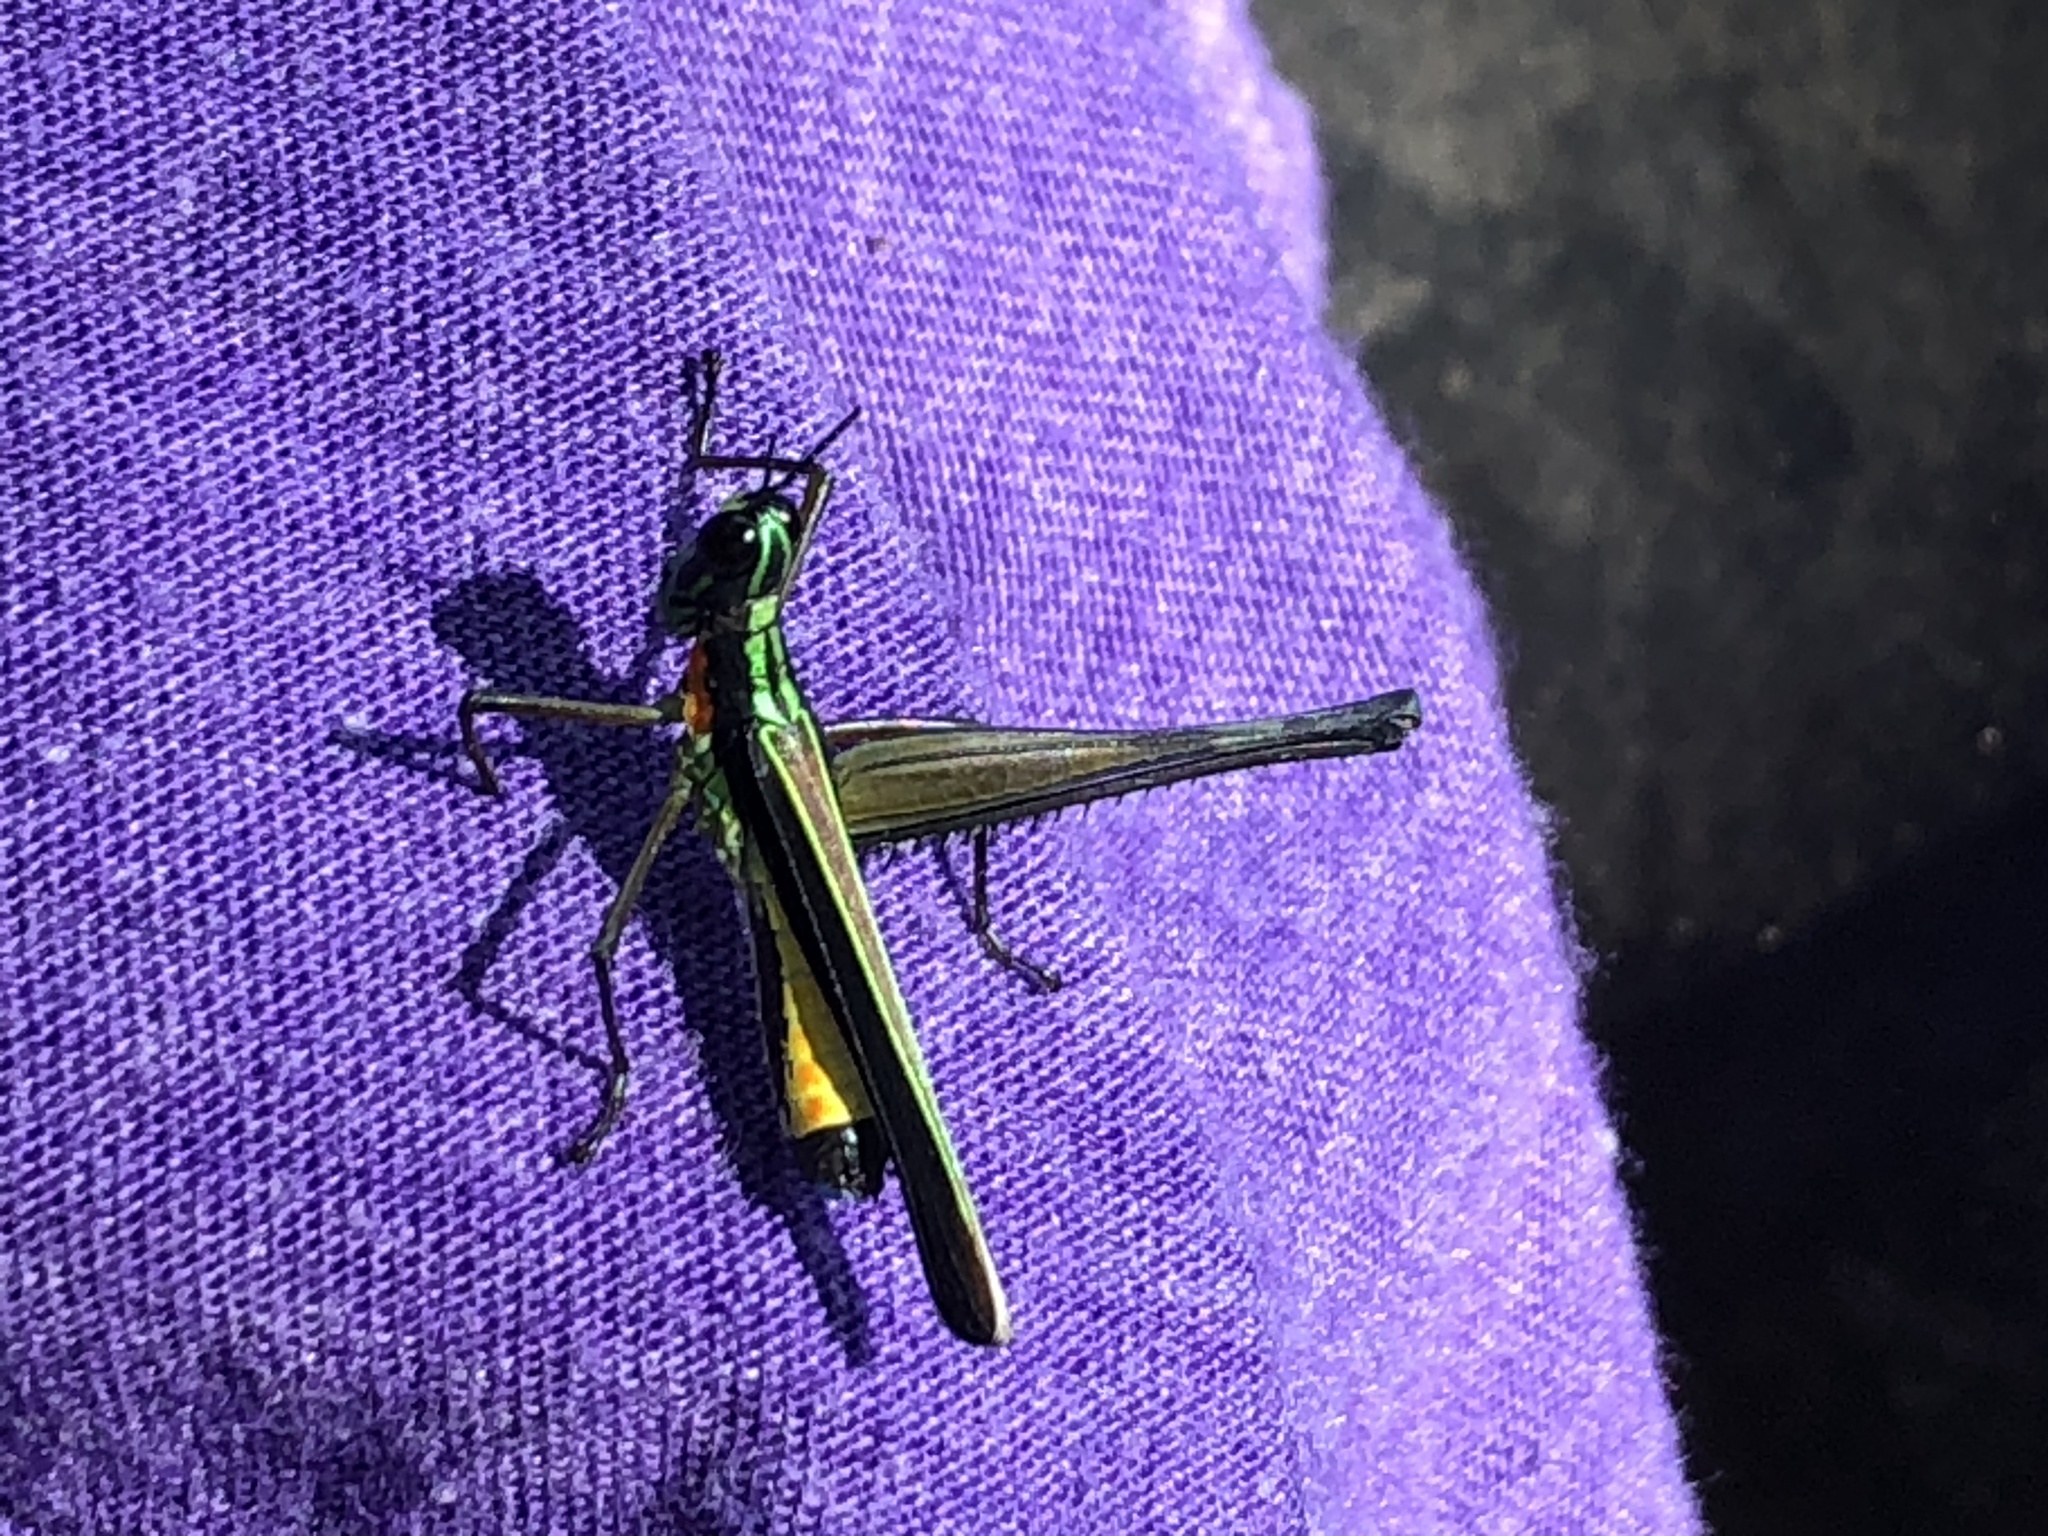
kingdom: Animalia
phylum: Arthropoda
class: Insecta
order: Orthoptera
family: Eumastacidae
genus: Paramastax
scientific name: Paramastax nigra
